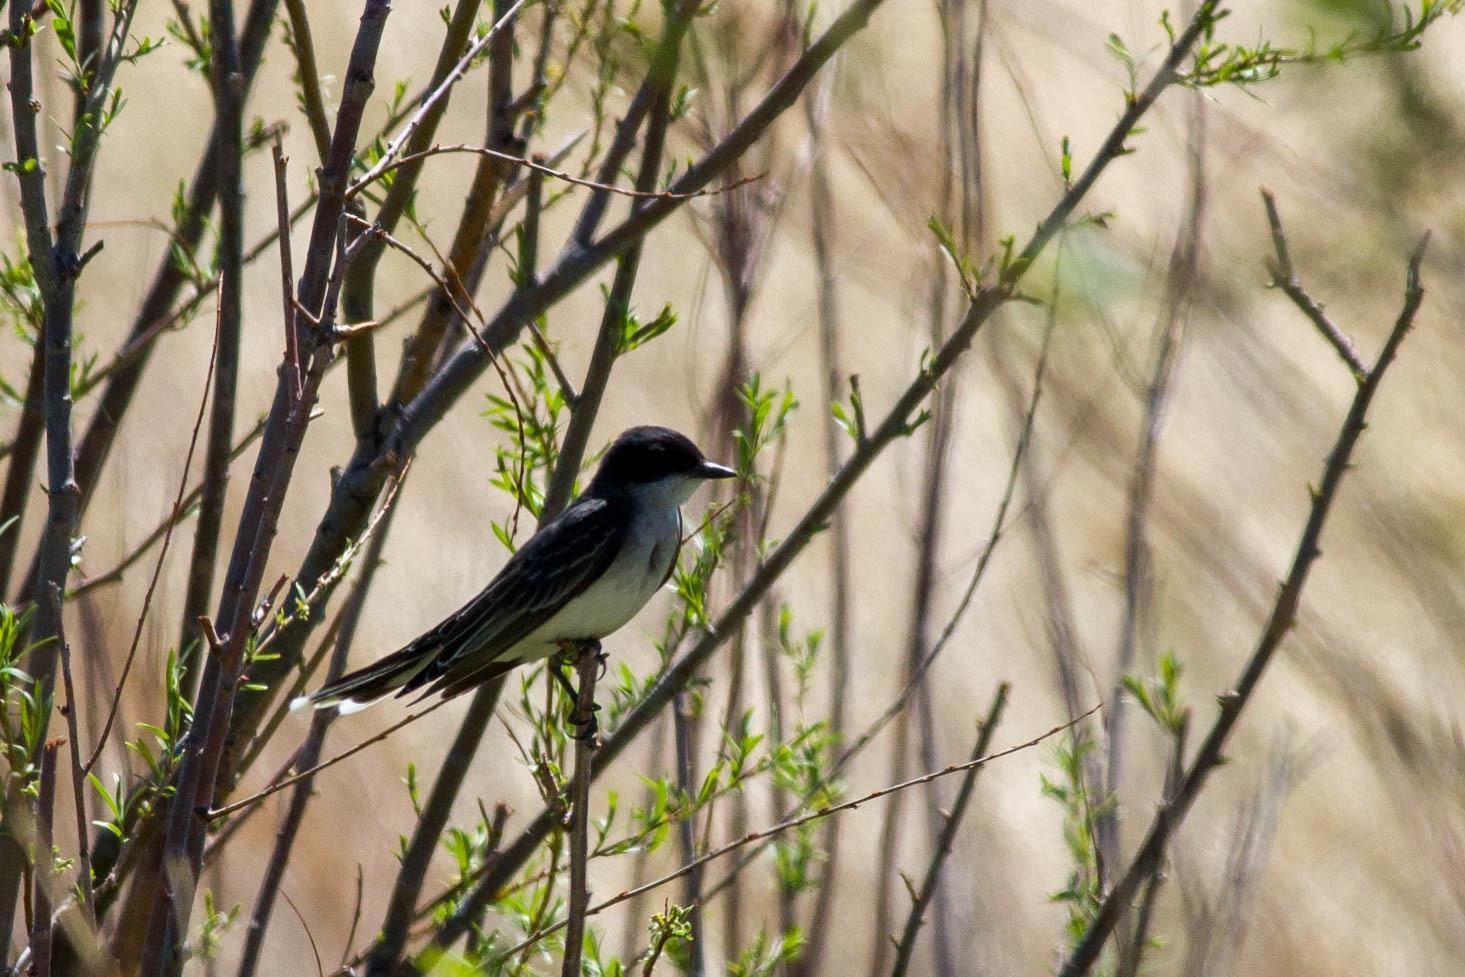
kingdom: Animalia
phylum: Chordata
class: Aves
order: Passeriformes
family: Tyrannidae
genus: Tyrannus
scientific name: Tyrannus tyrannus
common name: Eastern kingbird
